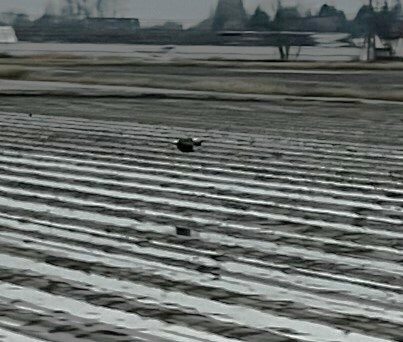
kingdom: Animalia
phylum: Chordata
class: Aves
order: Accipitriformes
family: Accipitridae
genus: Haliaeetus
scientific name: Haliaeetus leucocephalus
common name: Bald eagle
